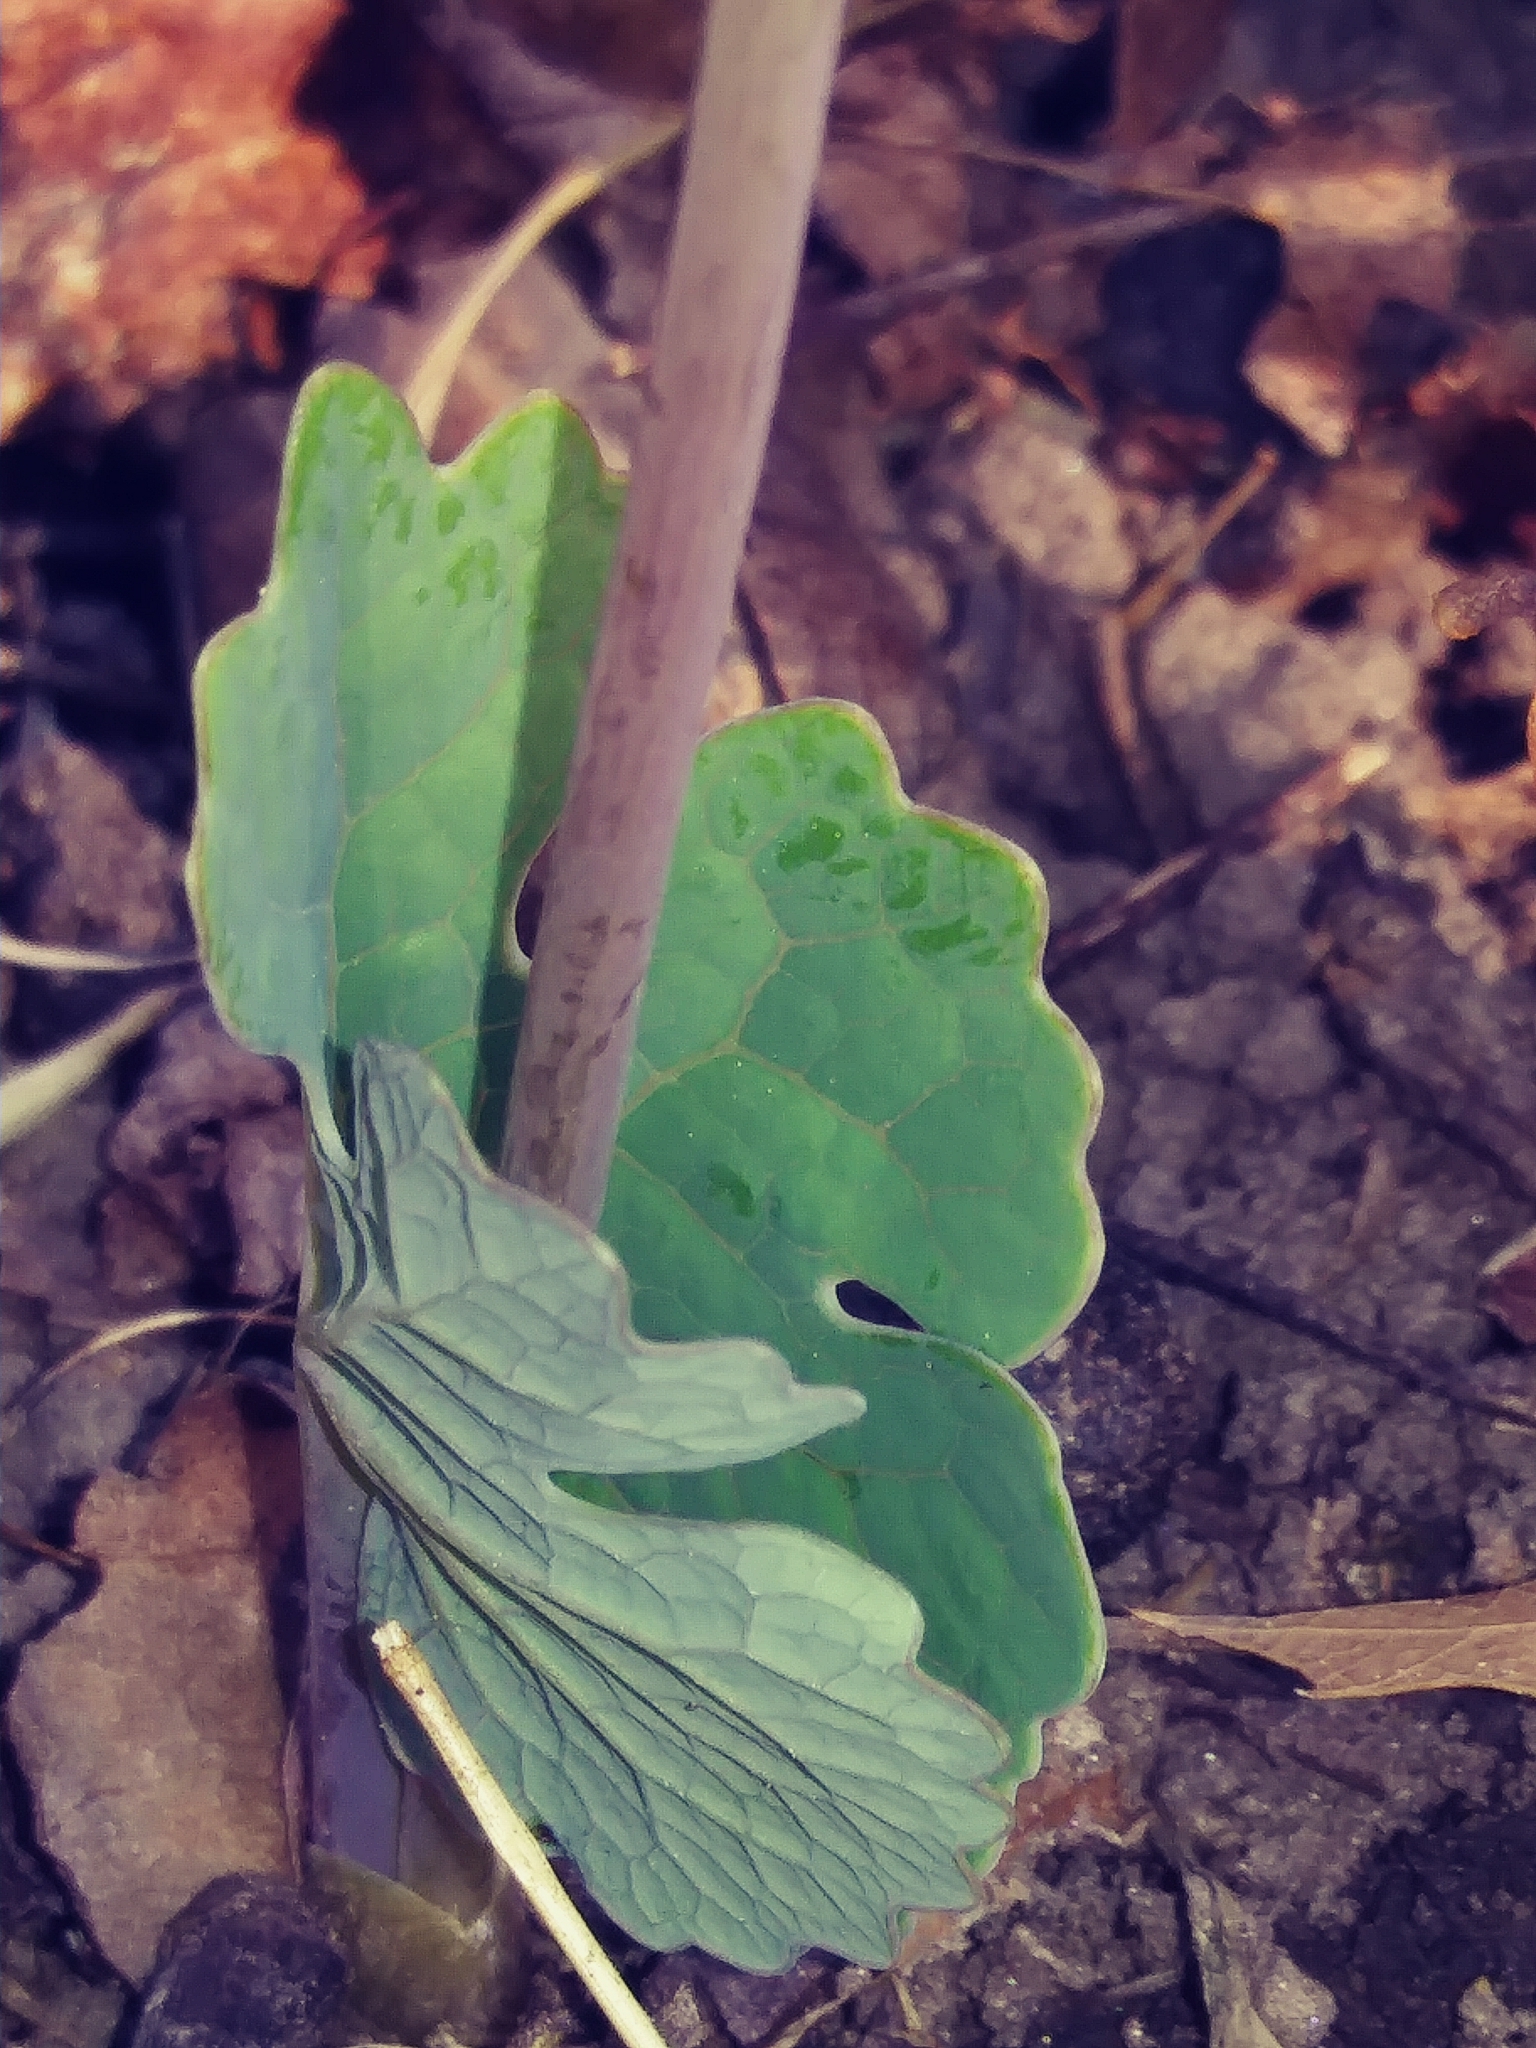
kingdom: Plantae
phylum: Tracheophyta
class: Magnoliopsida
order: Ranunculales
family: Papaveraceae
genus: Sanguinaria
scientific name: Sanguinaria canadensis
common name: Bloodroot
